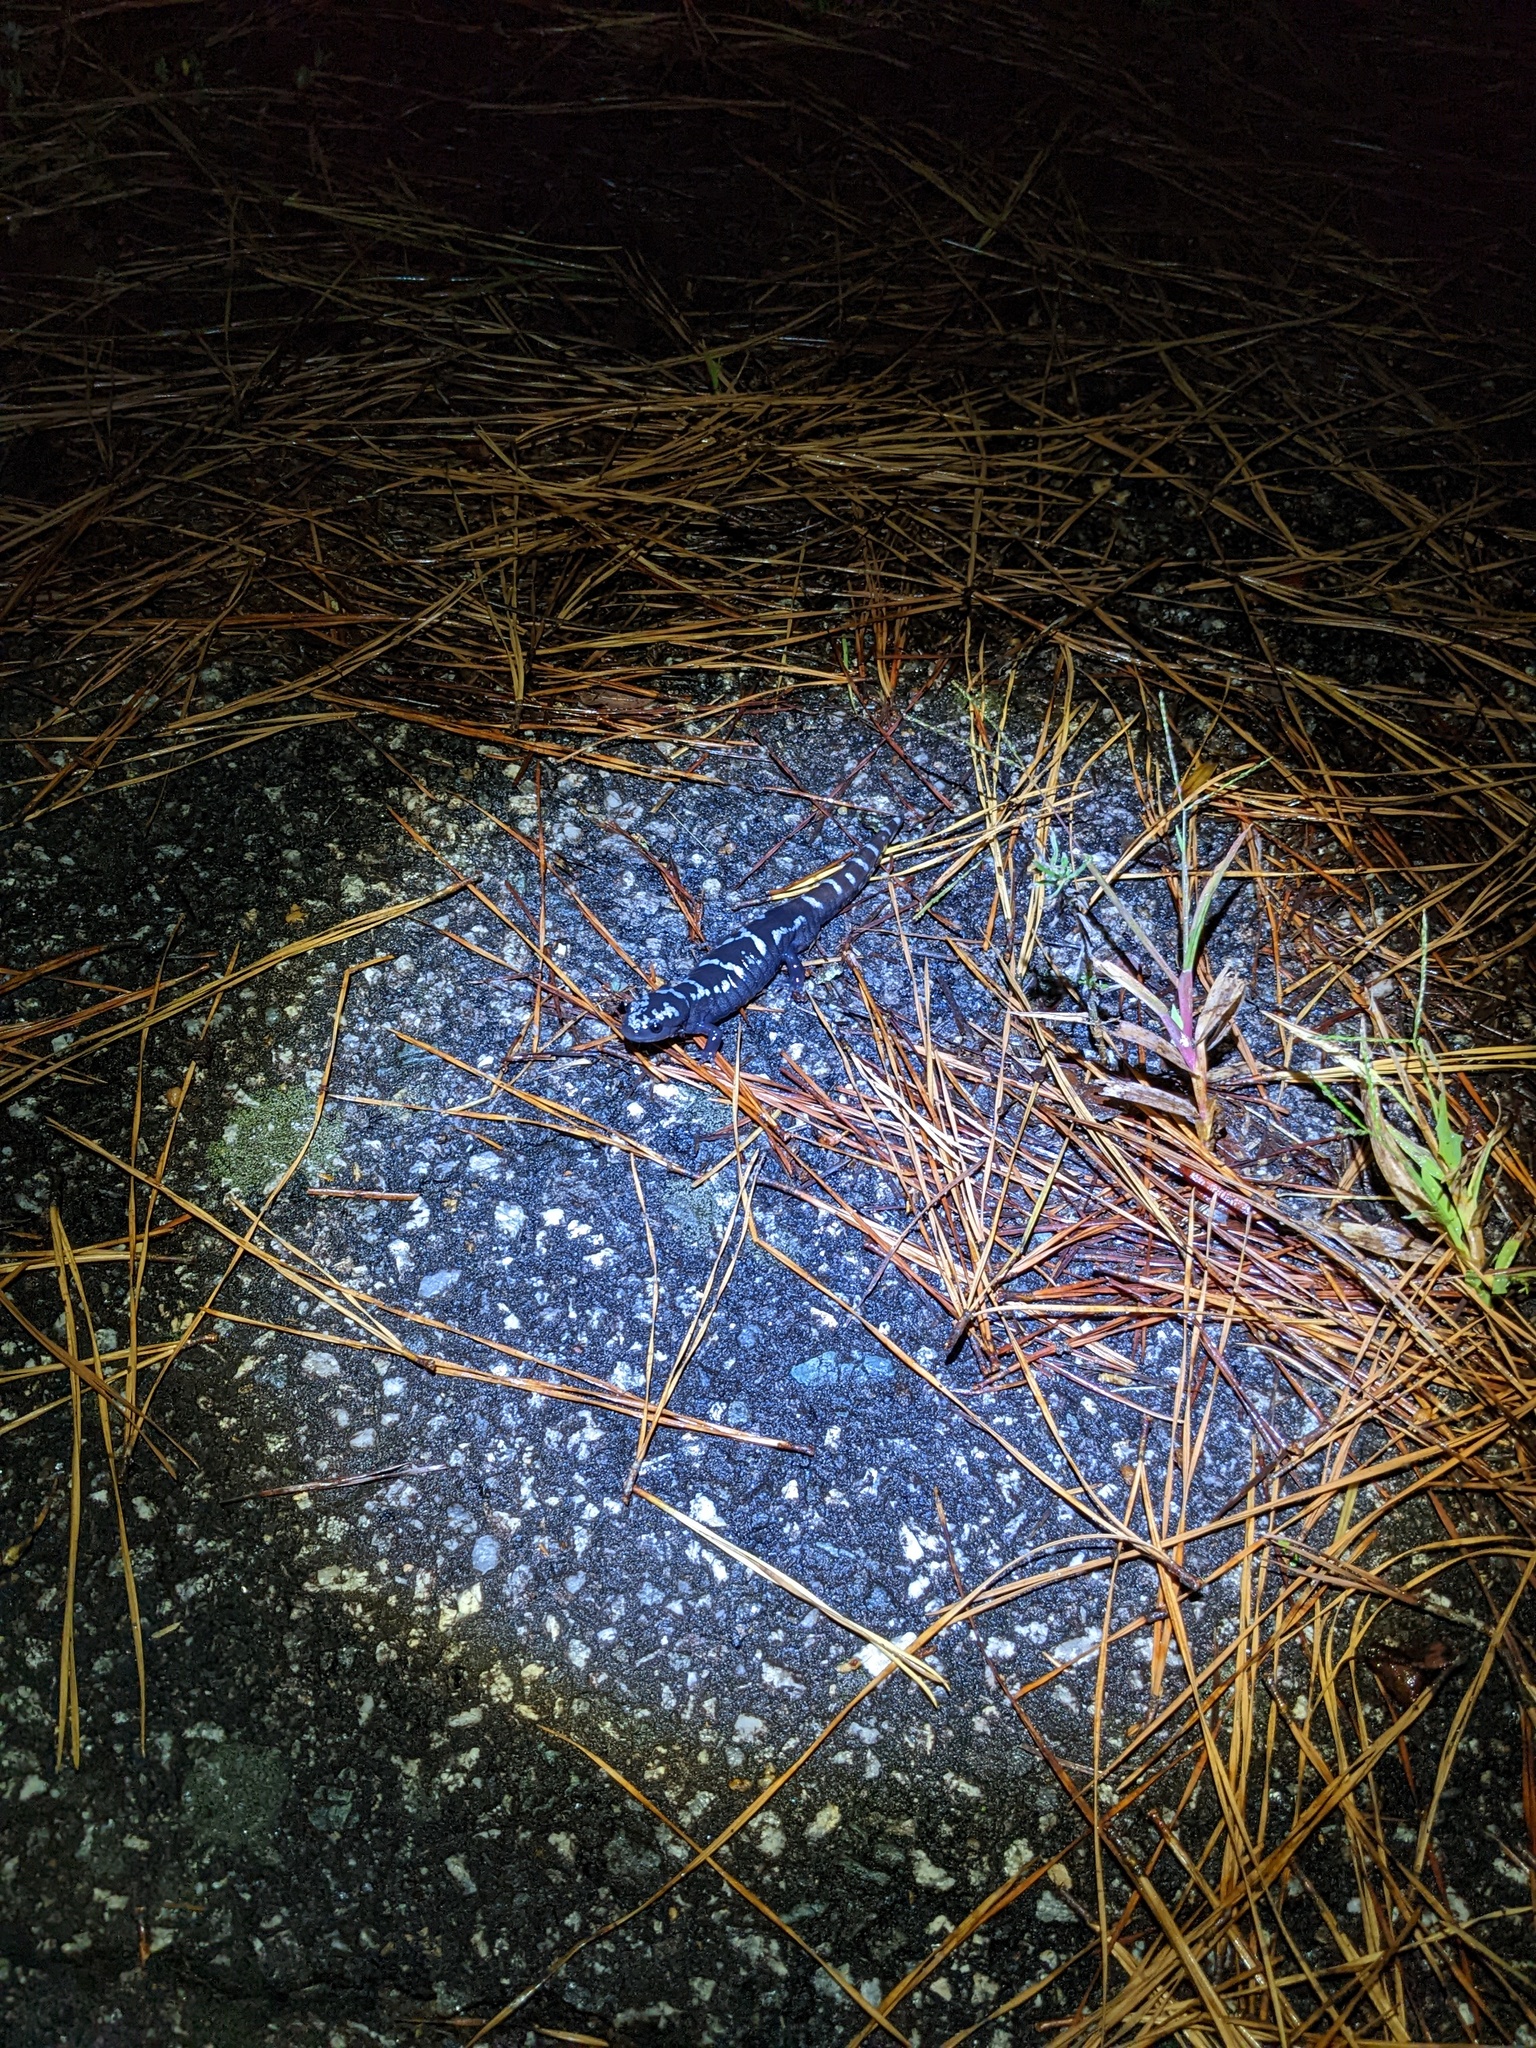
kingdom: Animalia
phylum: Chordata
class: Amphibia
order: Caudata
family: Ambystomatidae
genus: Ambystoma
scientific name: Ambystoma opacum
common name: Marbled salamander
